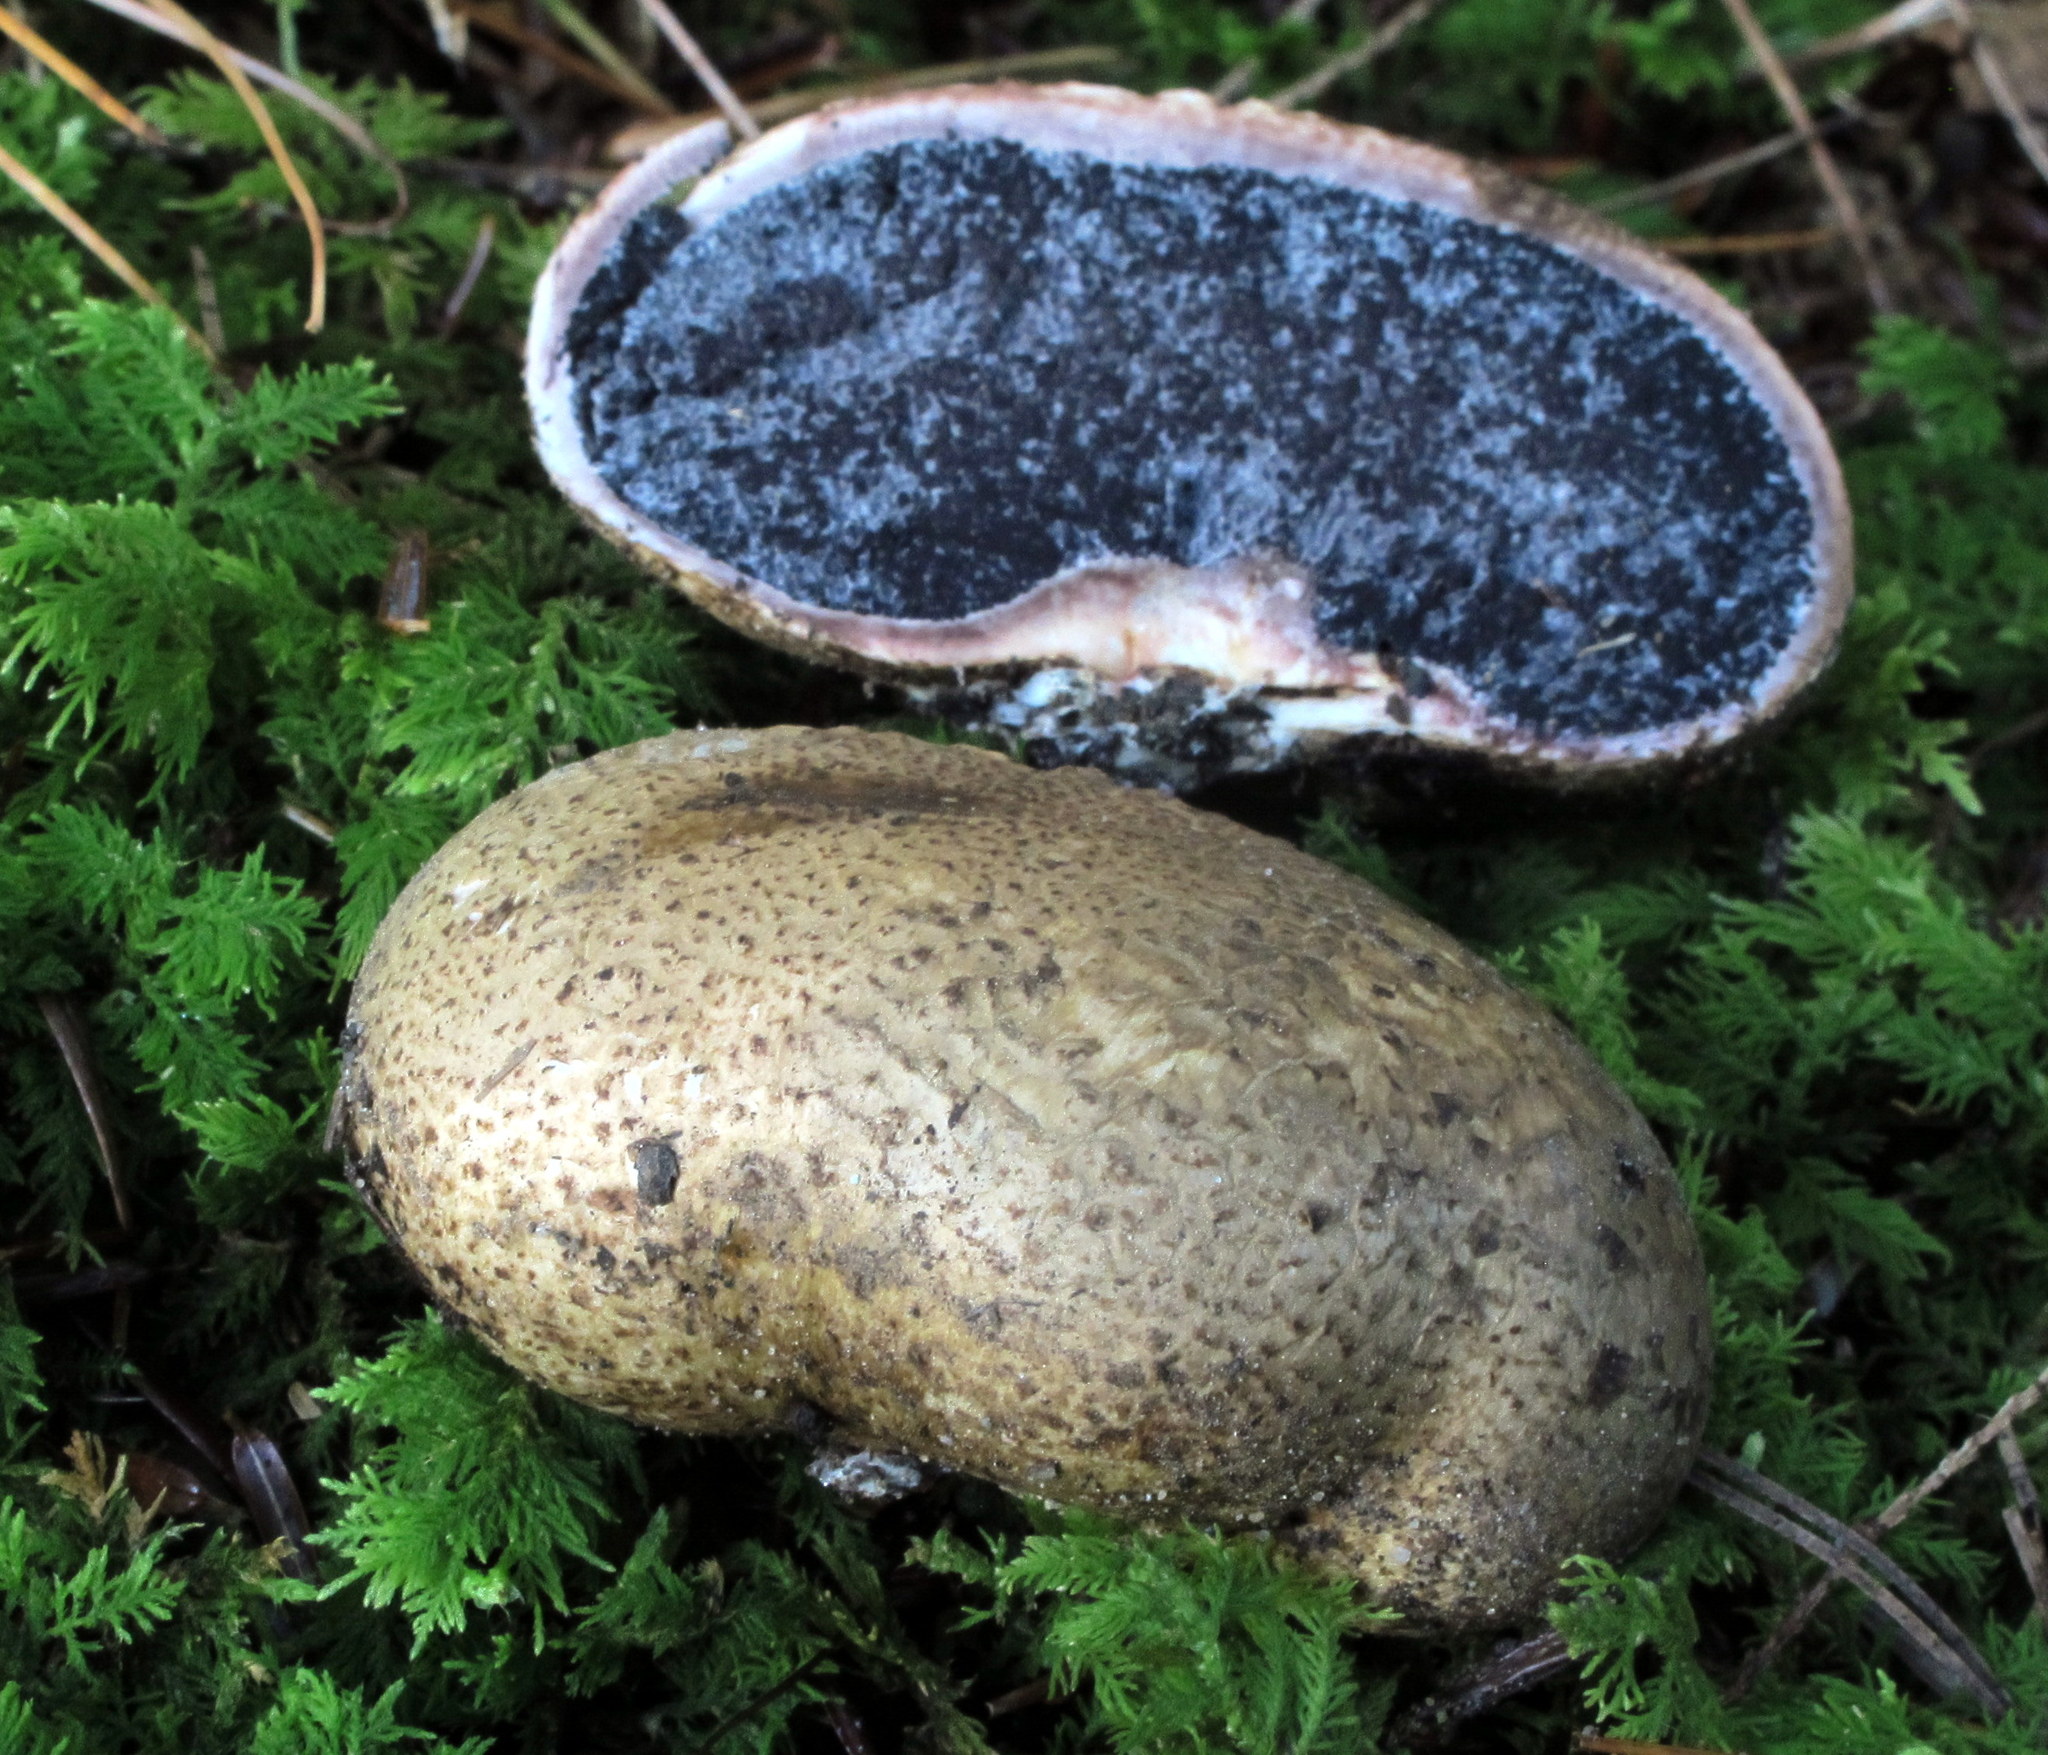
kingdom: Fungi
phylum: Basidiomycota
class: Agaricomycetes
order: Boletales
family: Sclerodermataceae
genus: Scleroderma
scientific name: Scleroderma cepa
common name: Onion earthball
